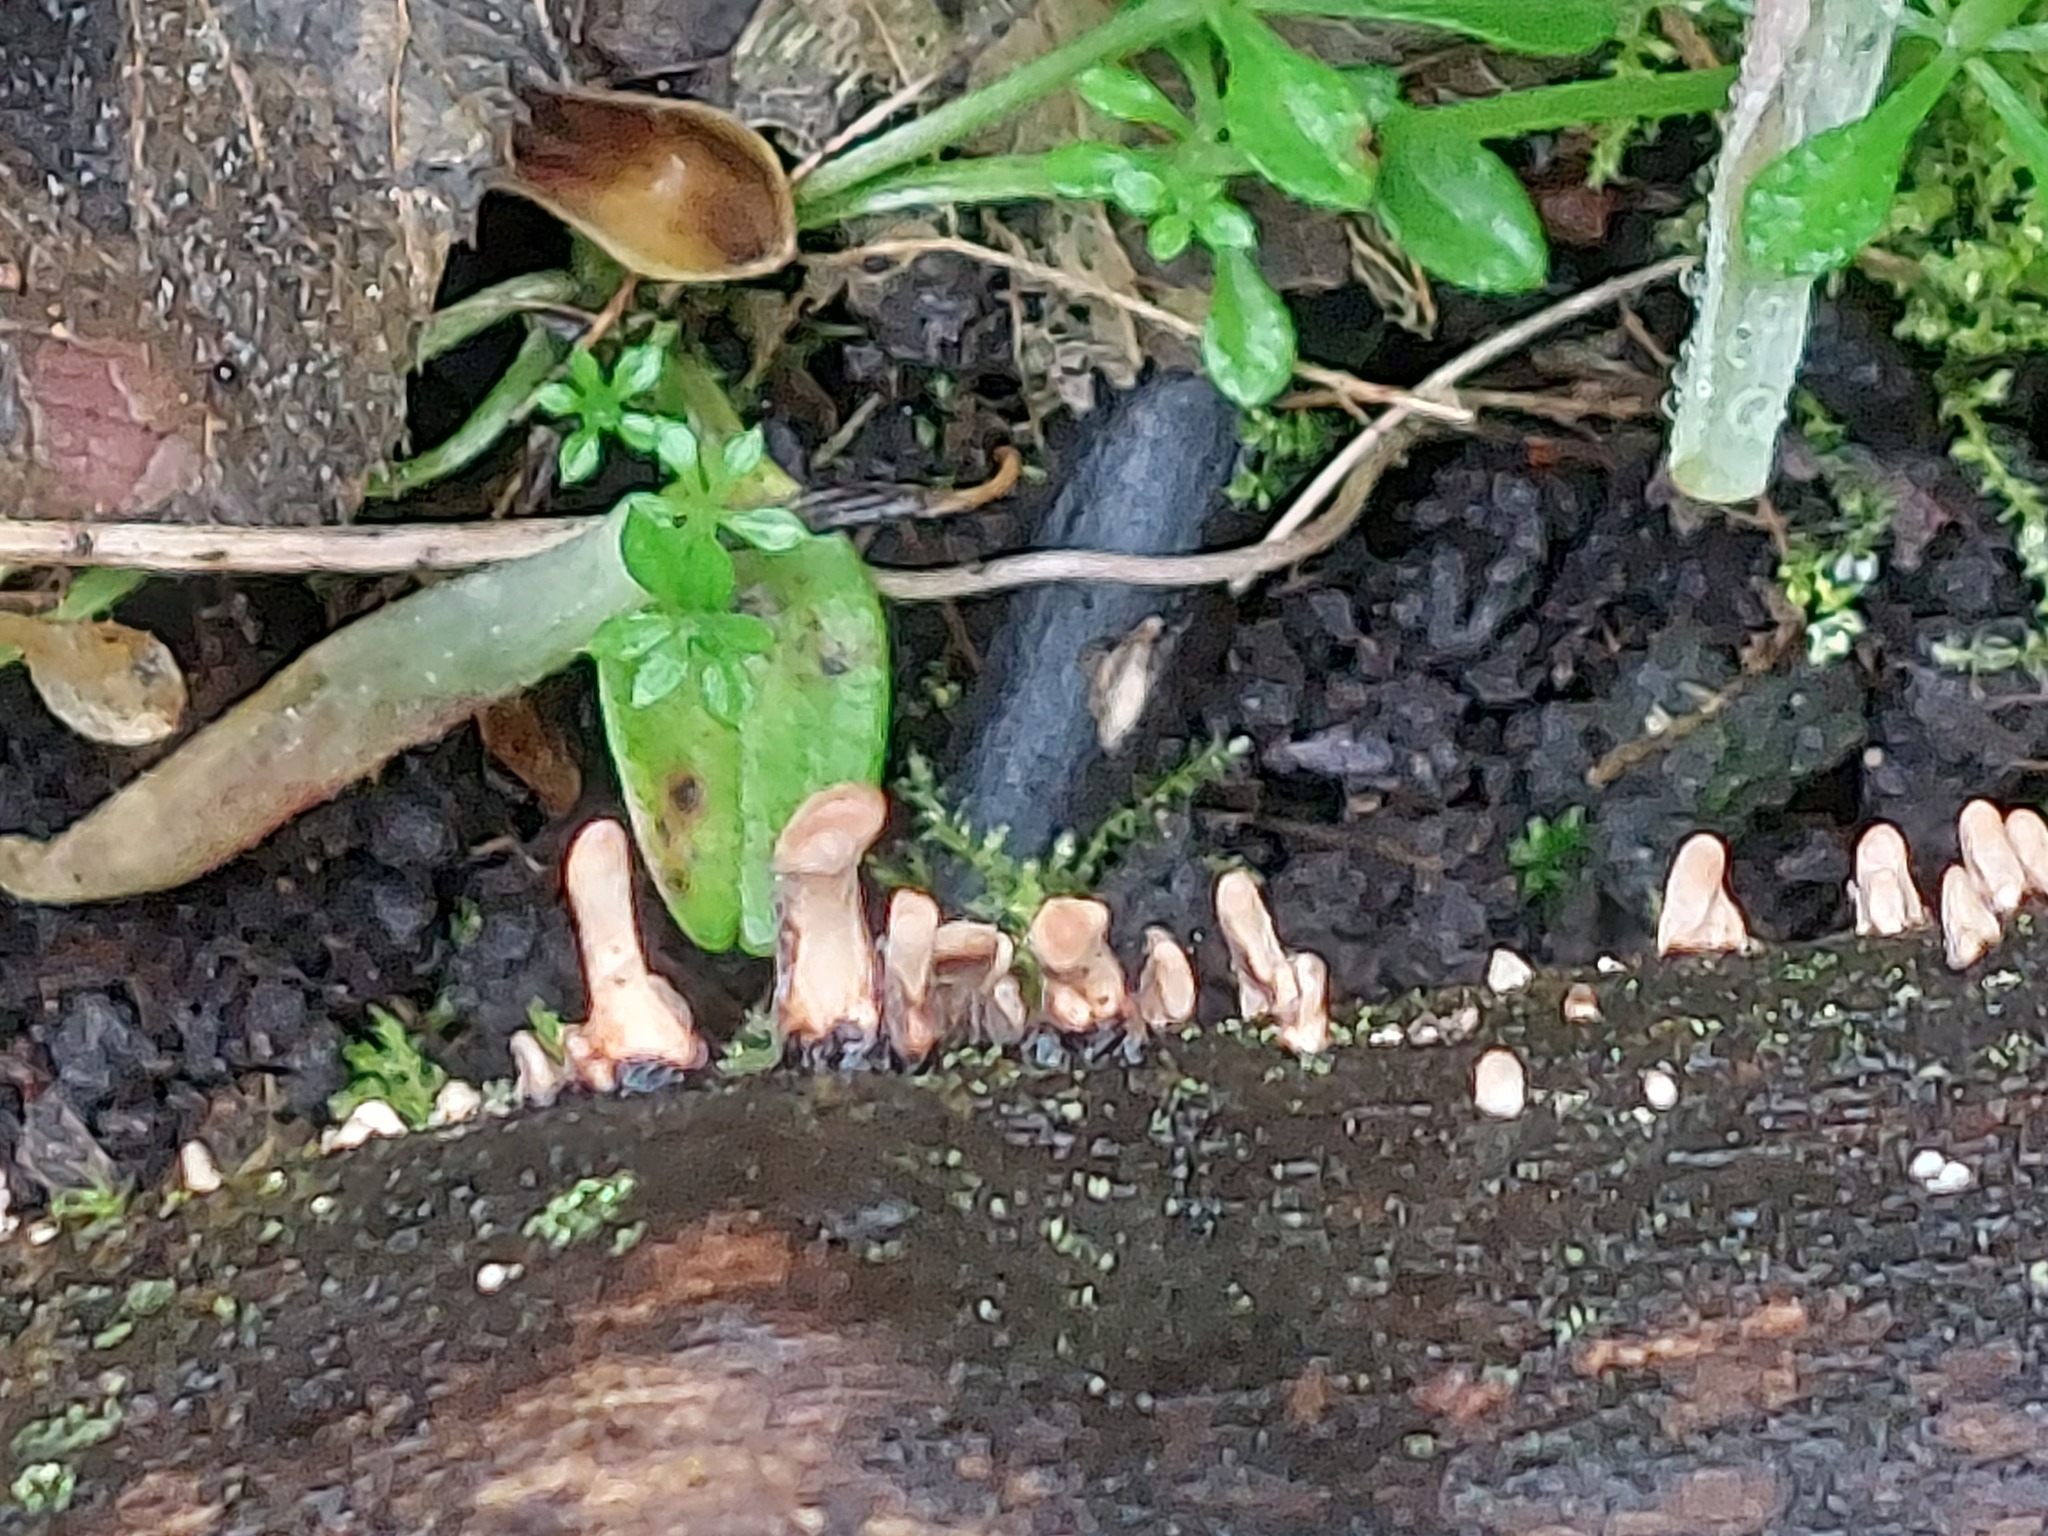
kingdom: Fungi
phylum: Ascomycota
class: Sordariomycetes
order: Xylariales
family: Xylariaceae
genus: Xylaria
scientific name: Xylaria longipes
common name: Dead moll's fingers
